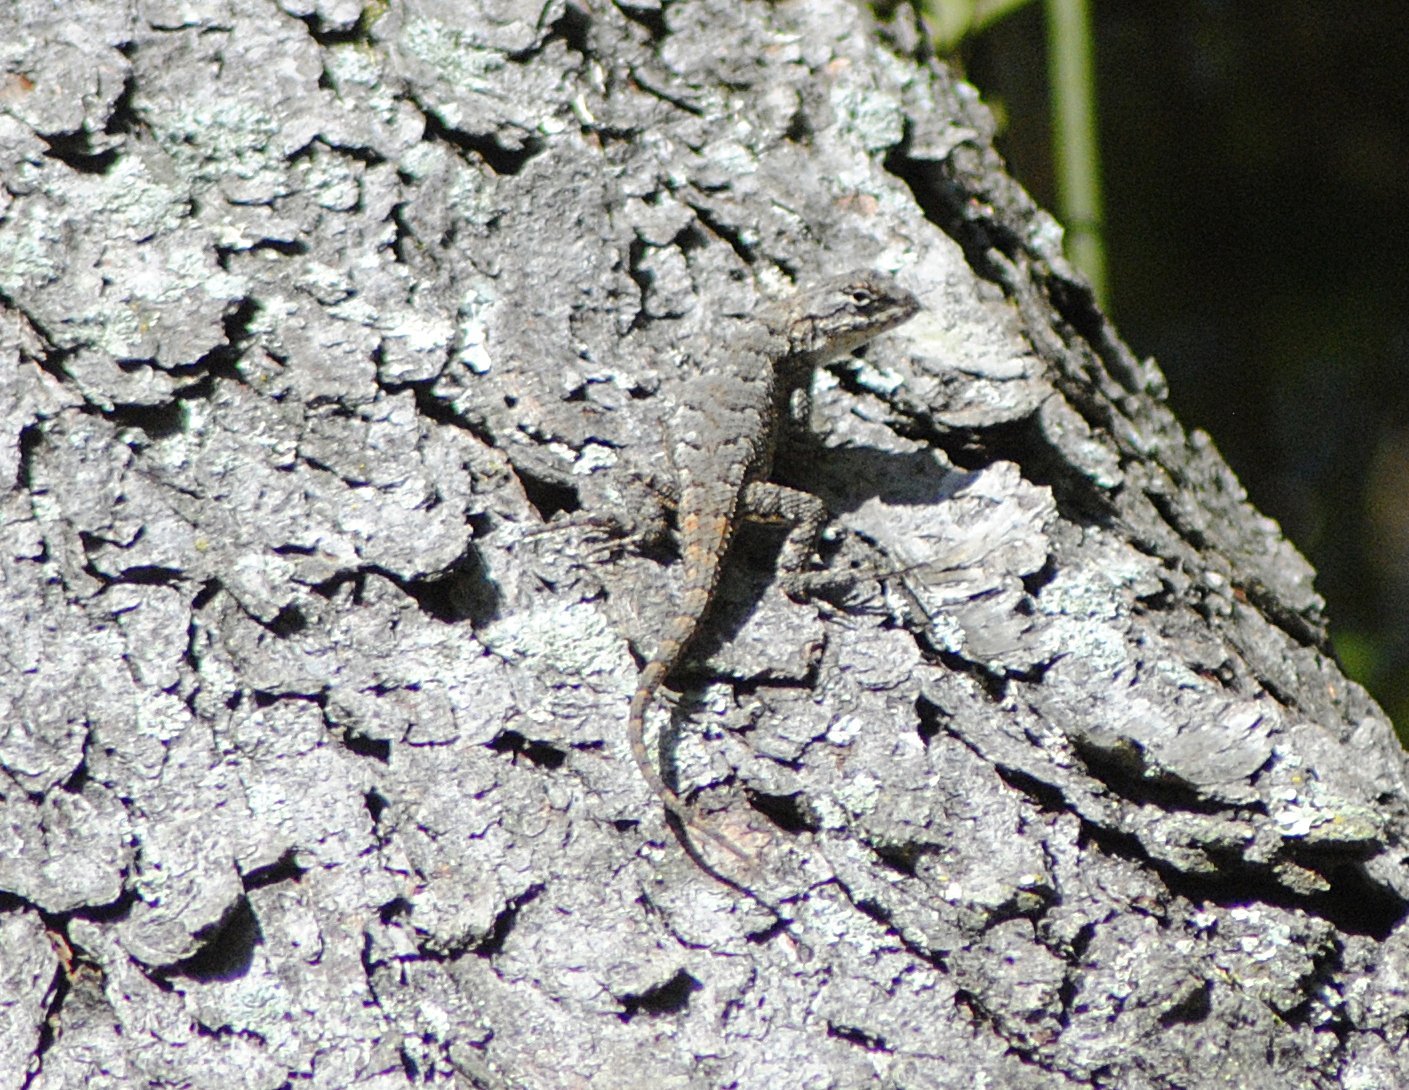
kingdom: Animalia
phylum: Chordata
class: Squamata
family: Phrynosomatidae
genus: Sceloporus
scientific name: Sceloporus undulatus
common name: Eastern fence lizard
